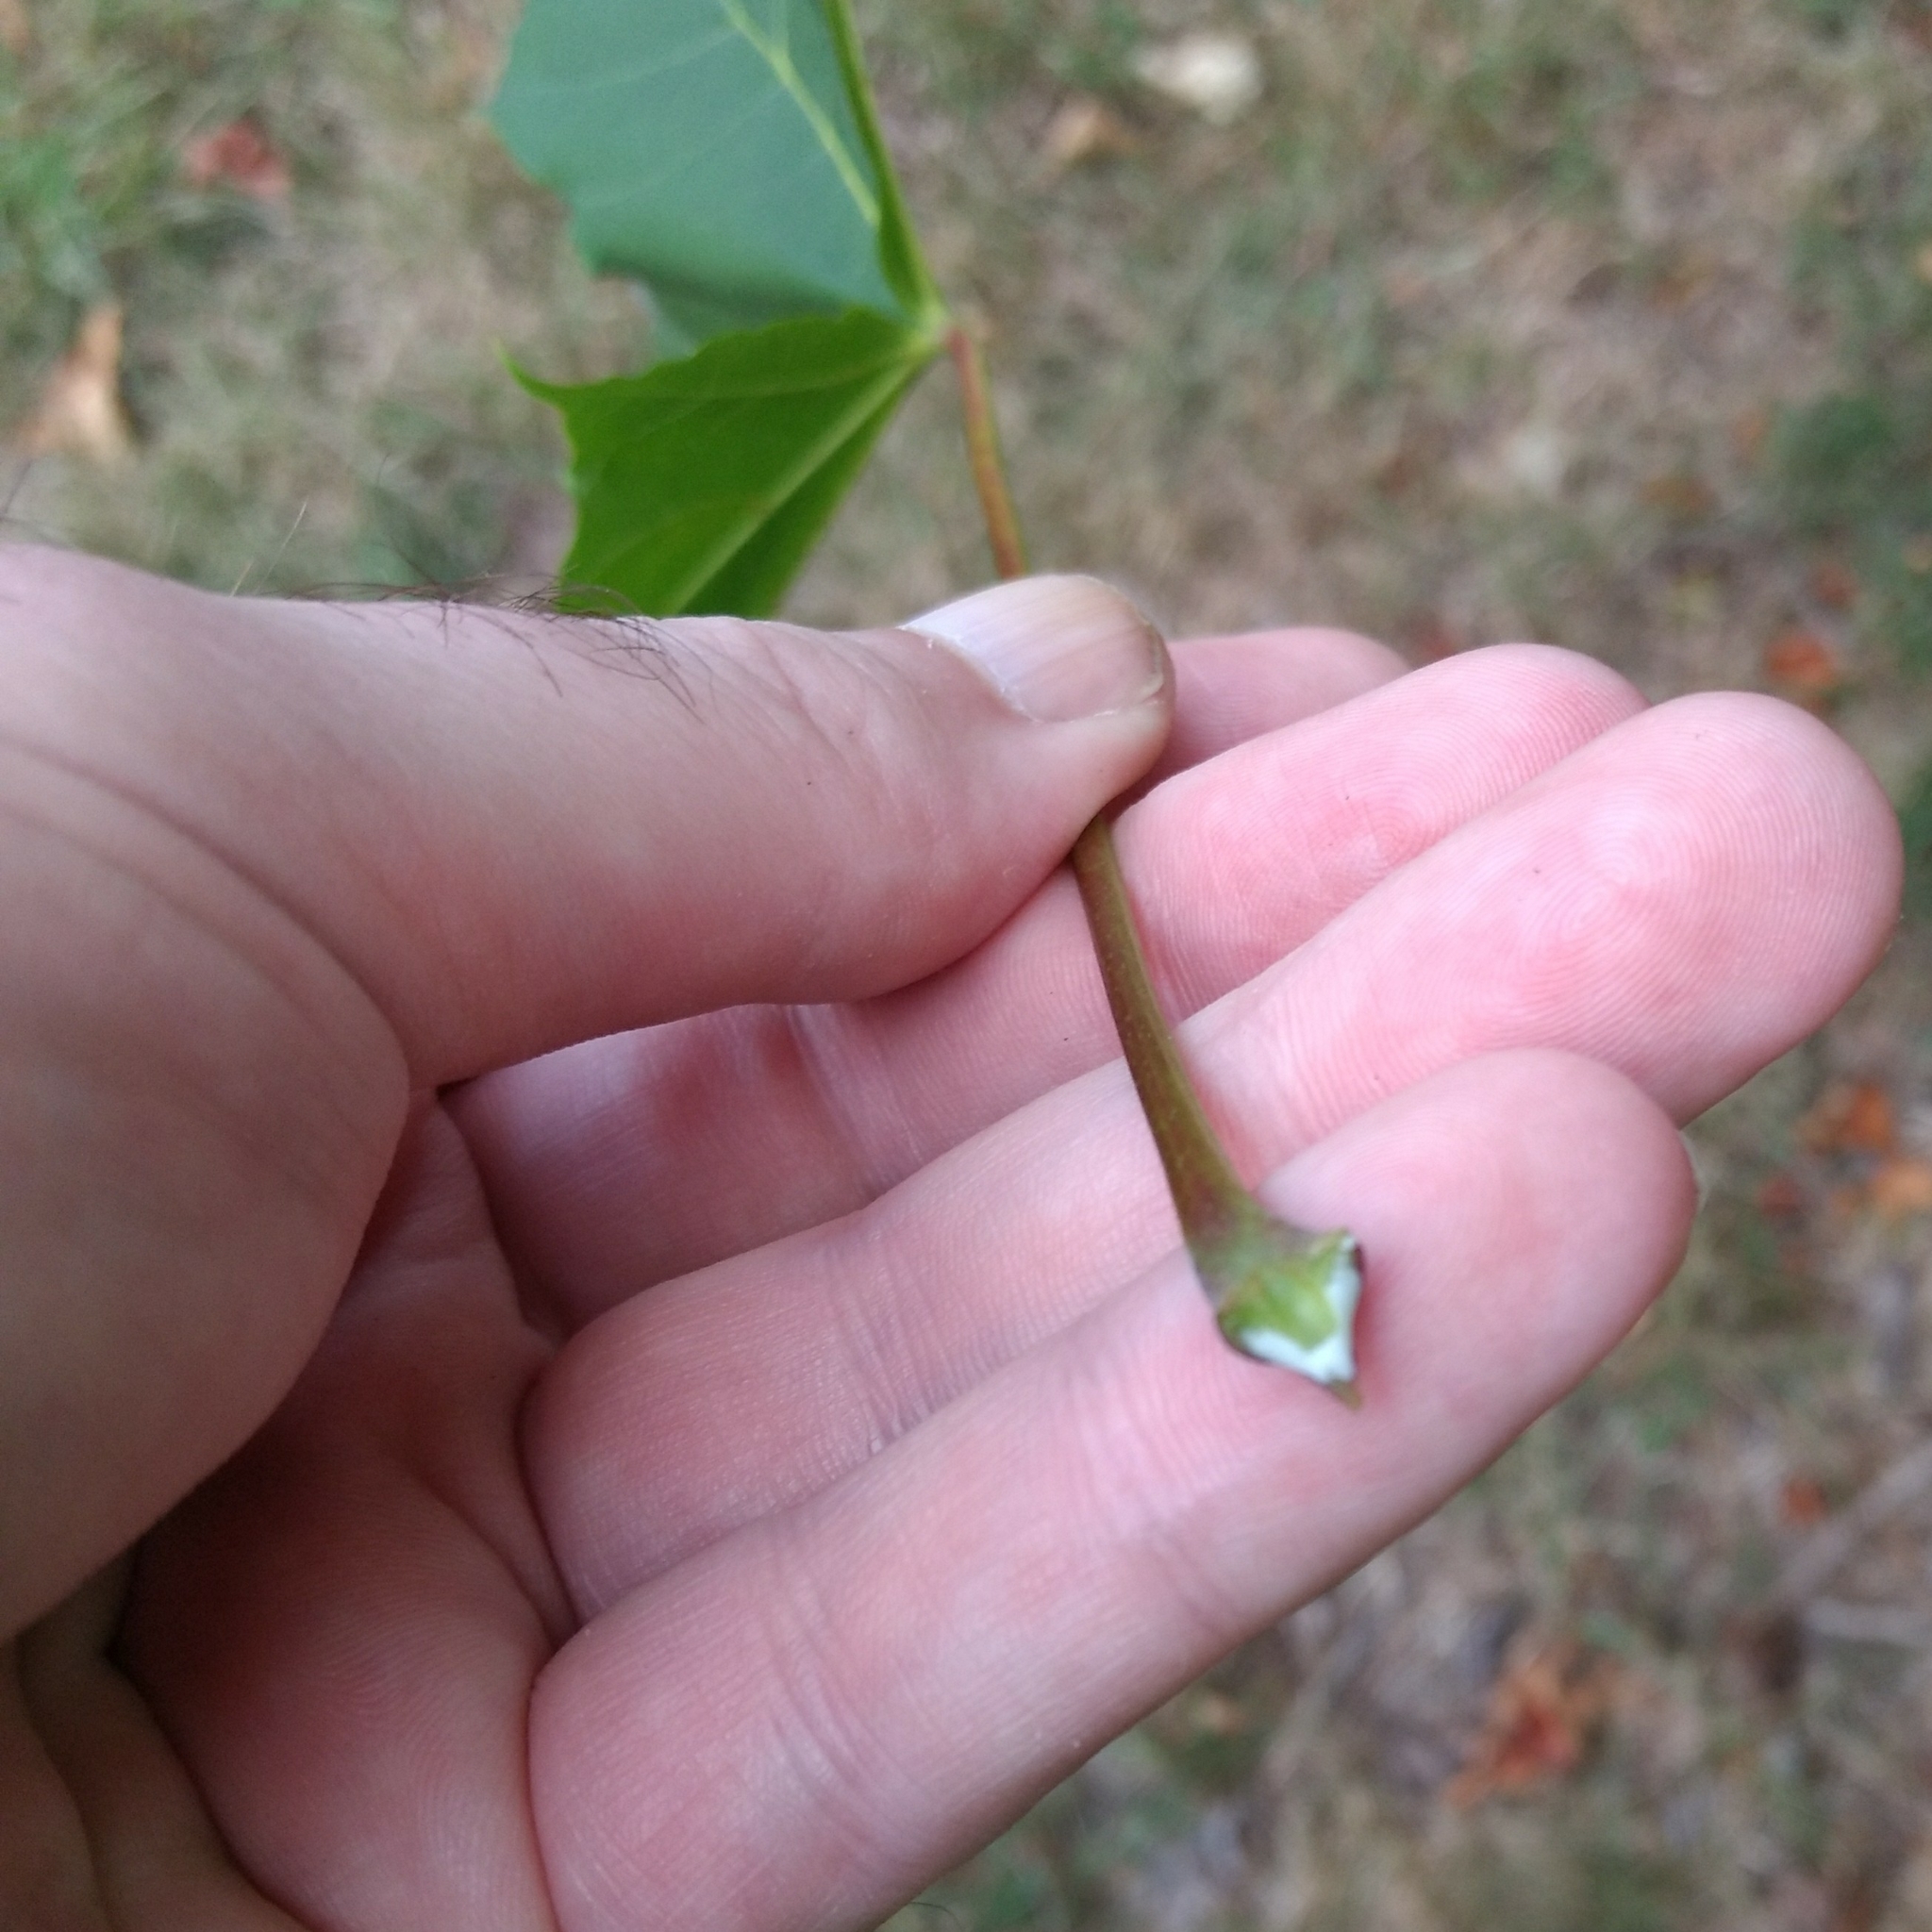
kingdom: Plantae
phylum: Tracheophyta
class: Magnoliopsida
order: Sapindales
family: Sapindaceae
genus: Acer
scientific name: Acer platanoides
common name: Norway maple
